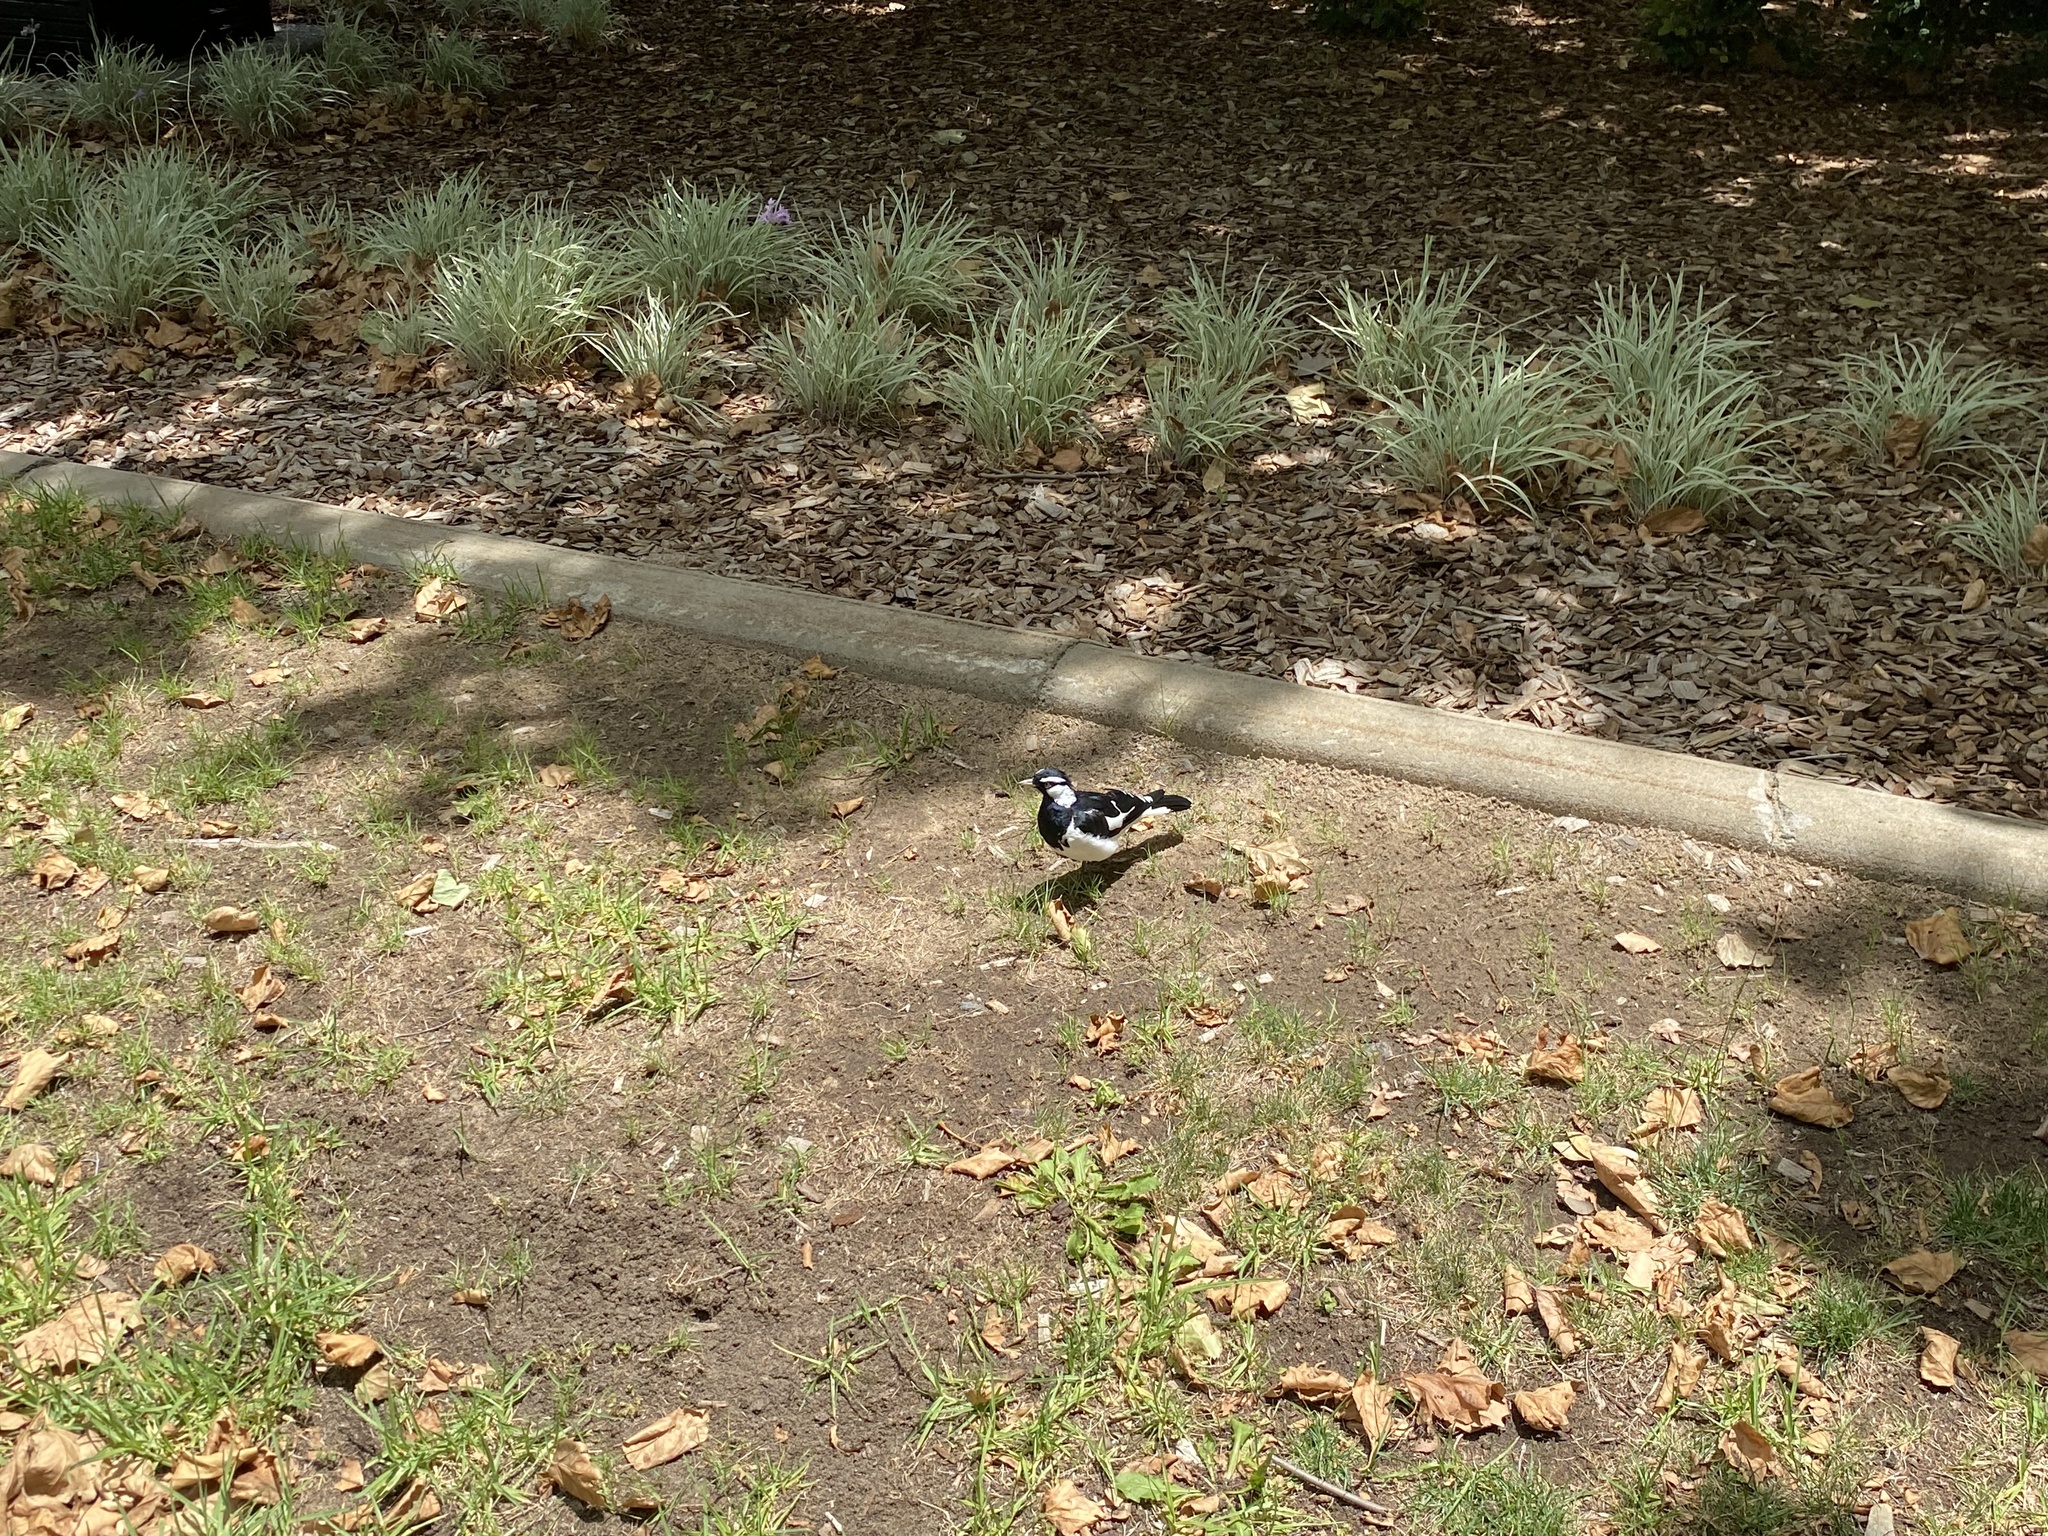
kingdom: Animalia
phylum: Chordata
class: Aves
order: Passeriformes
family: Monarchidae
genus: Grallina
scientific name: Grallina cyanoleuca
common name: Magpie-lark
